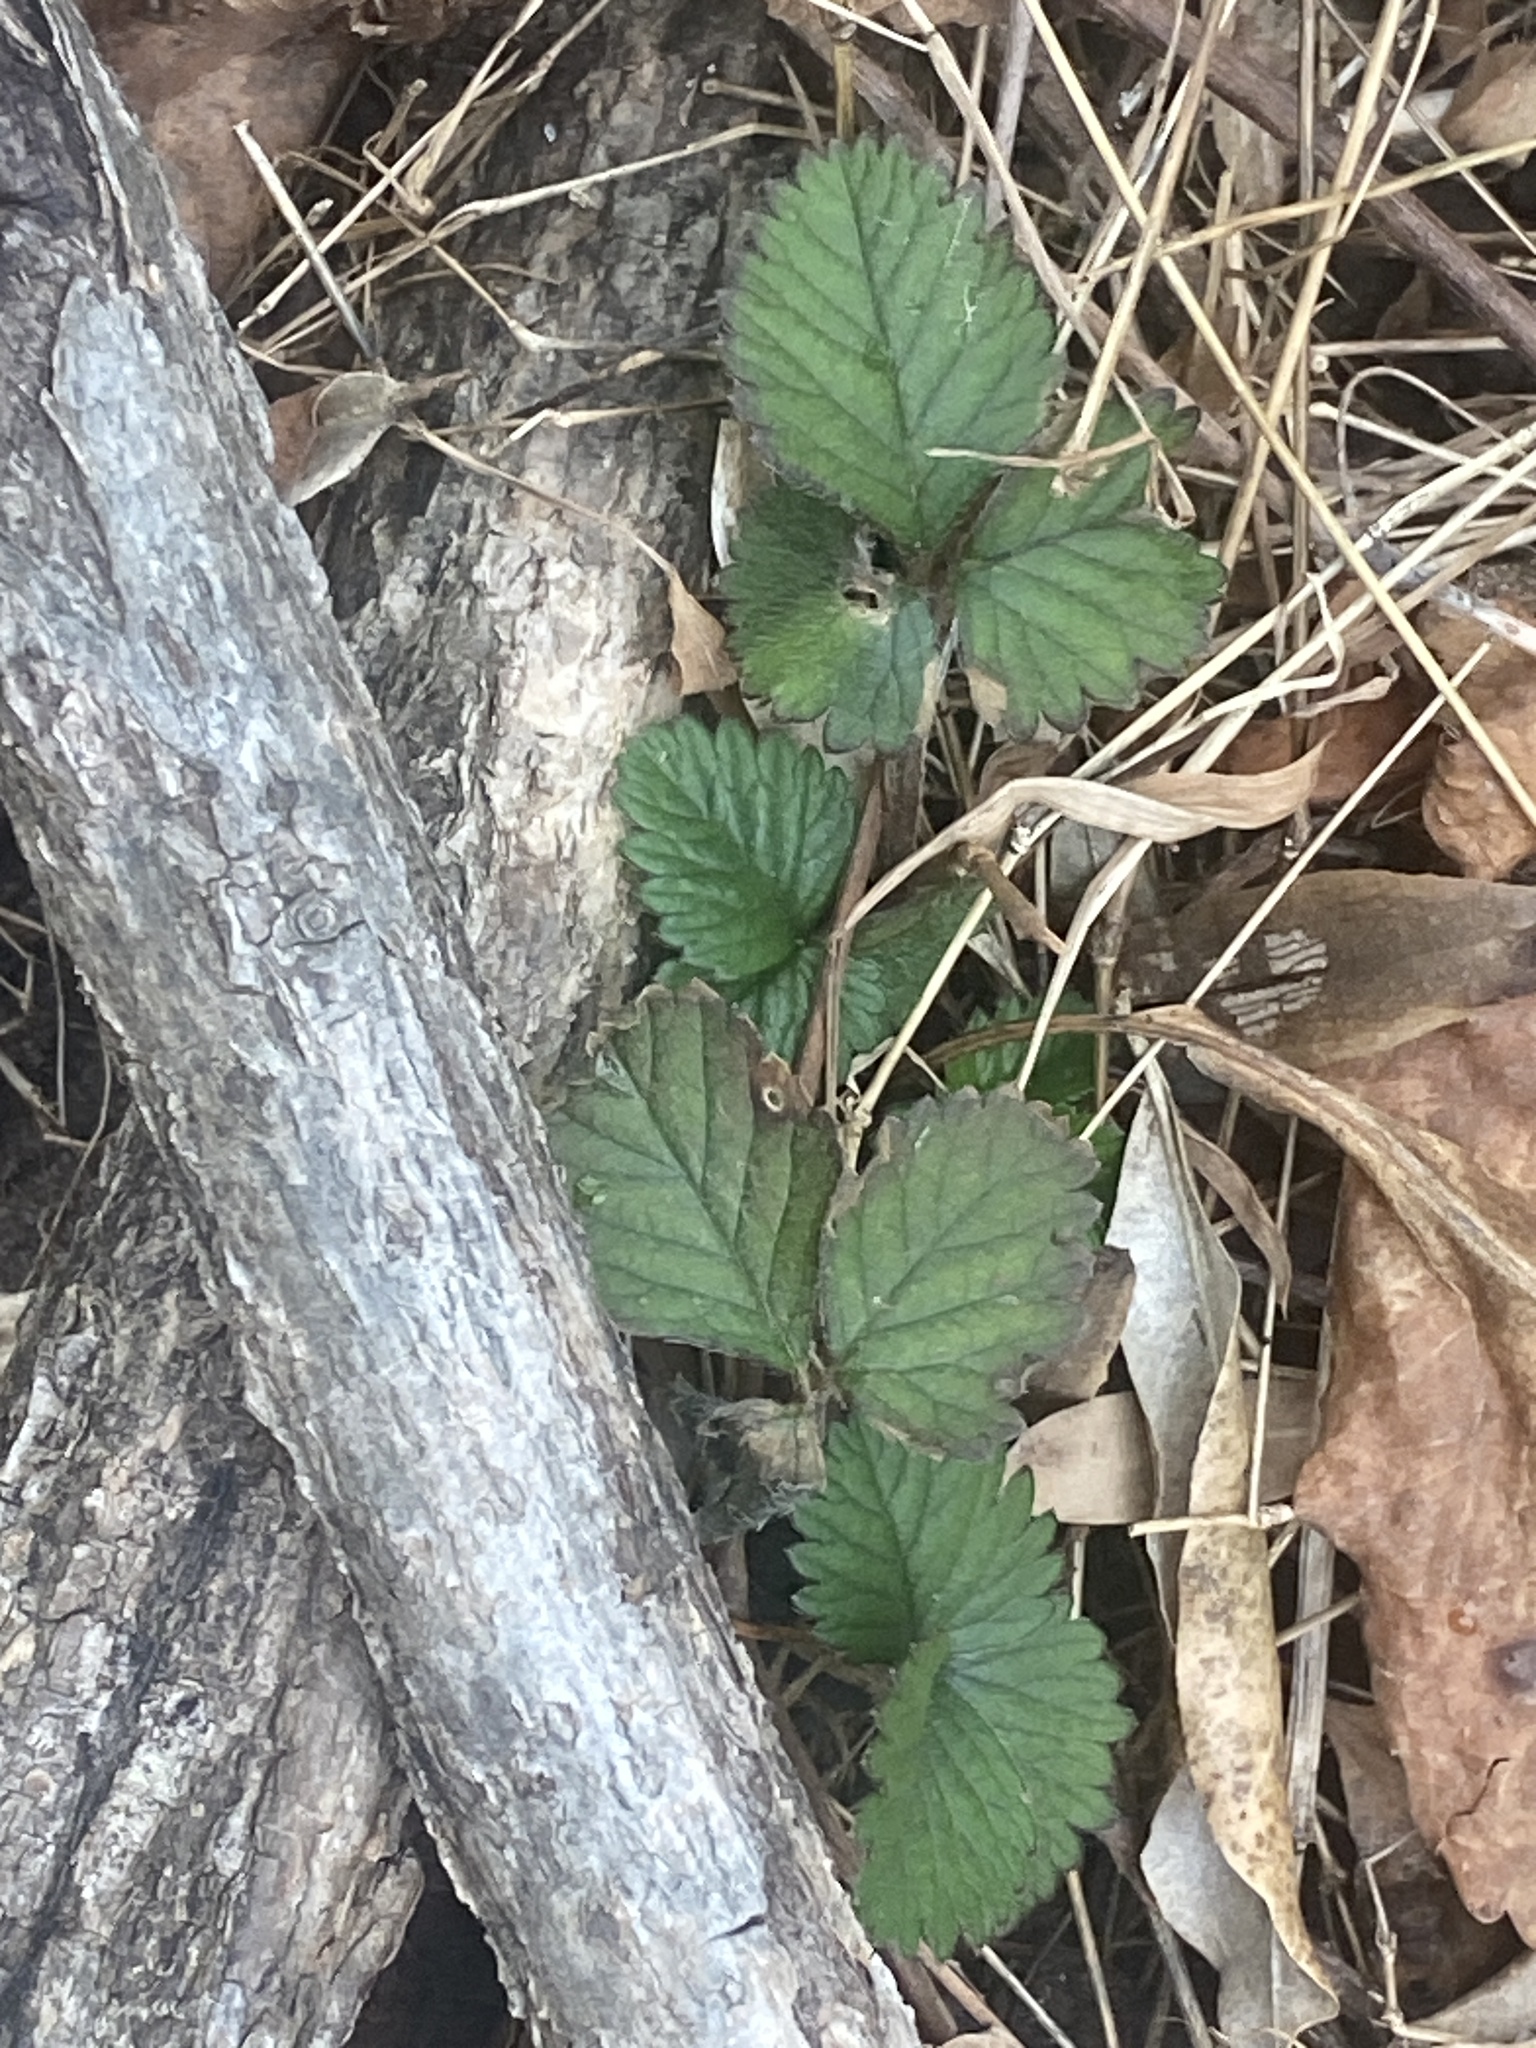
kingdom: Plantae
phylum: Tracheophyta
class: Magnoliopsida
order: Rosales
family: Rosaceae
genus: Potentilla
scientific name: Potentilla indica
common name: Yellow-flowered strawberry
